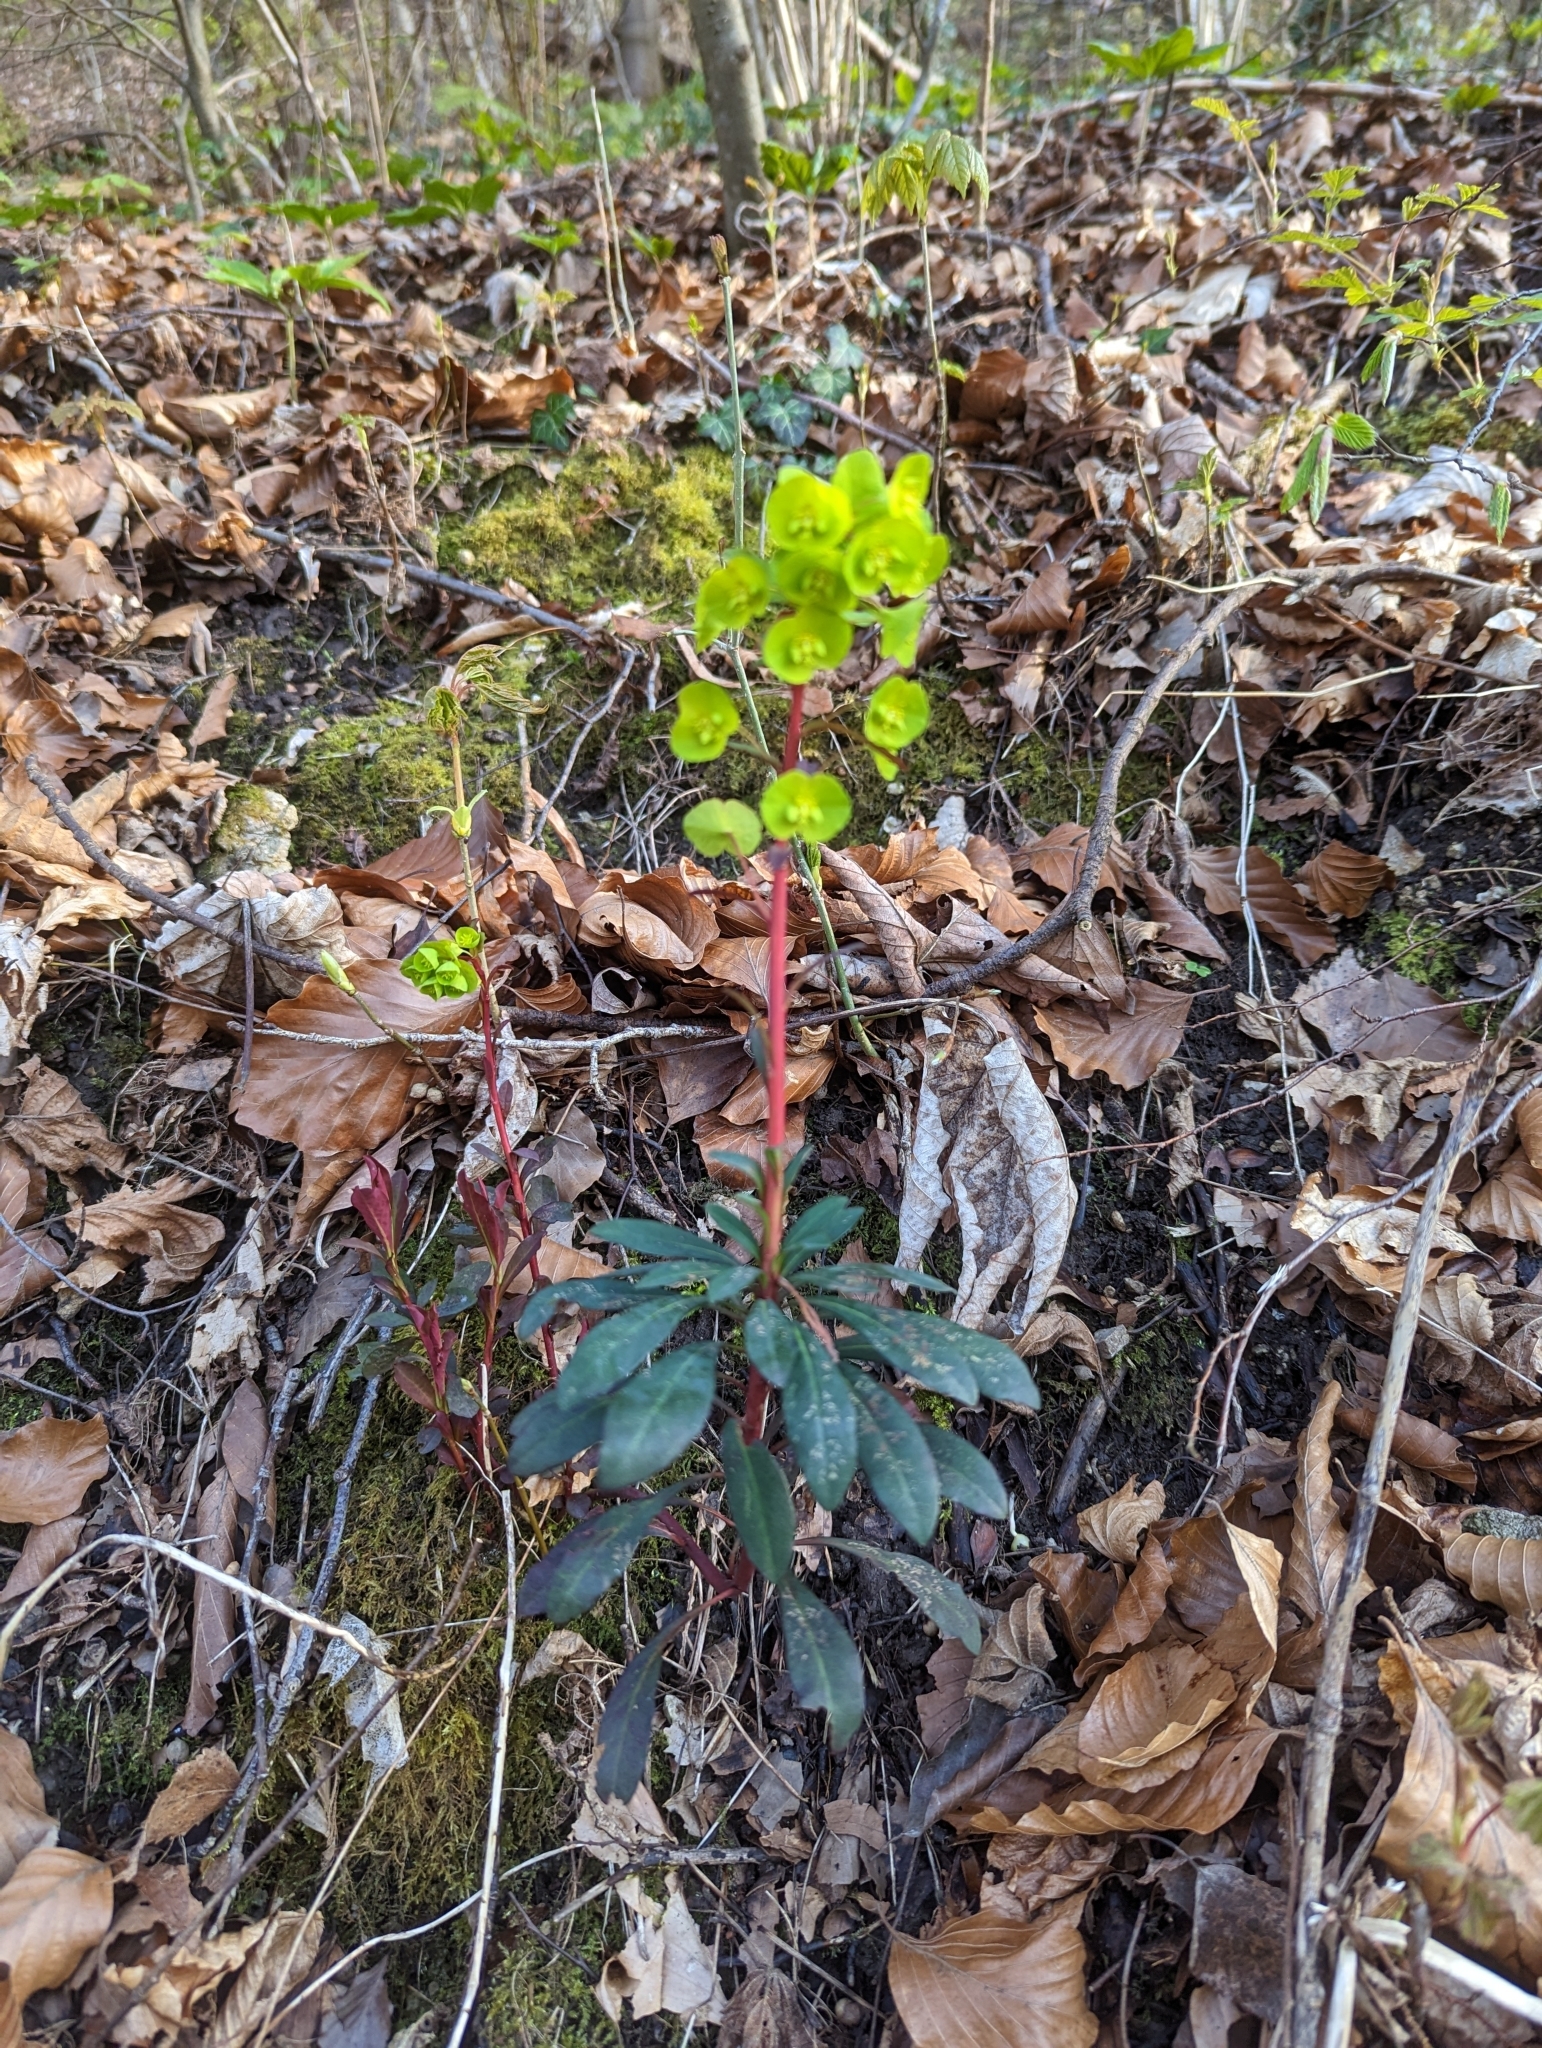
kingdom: Plantae
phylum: Tracheophyta
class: Magnoliopsida
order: Malpighiales
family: Euphorbiaceae
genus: Euphorbia
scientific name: Euphorbia amygdaloides
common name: Wood spurge
